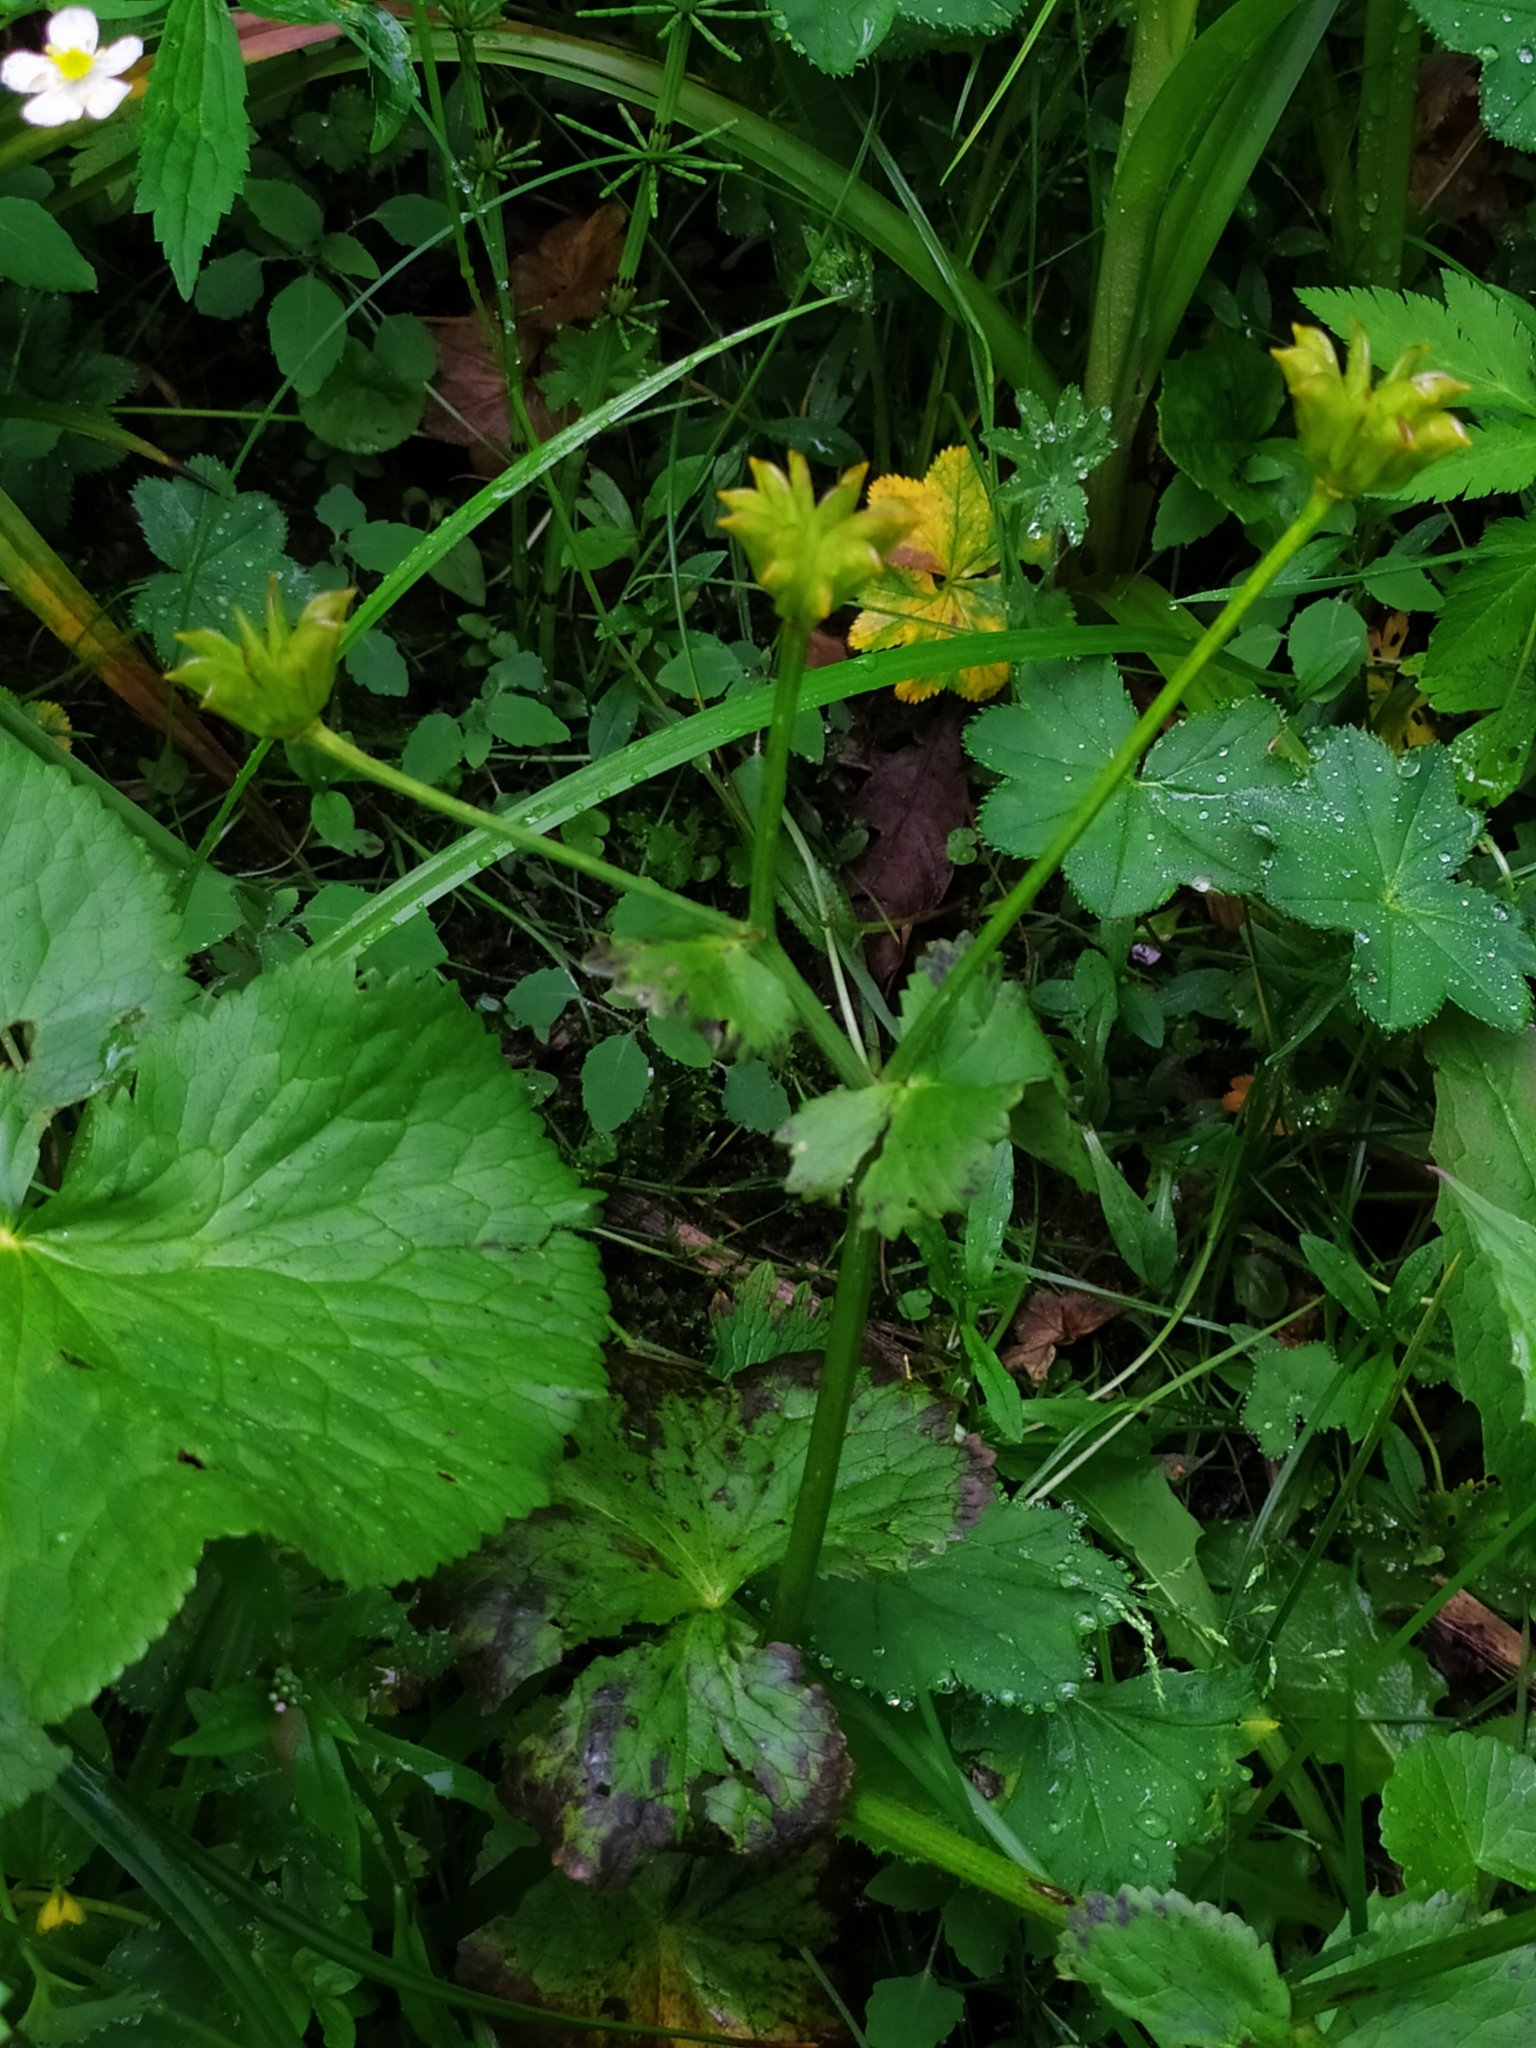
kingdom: Plantae
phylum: Tracheophyta
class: Magnoliopsida
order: Ranunculales
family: Ranunculaceae
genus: Caltha
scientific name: Caltha palustris
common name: Marsh marigold
